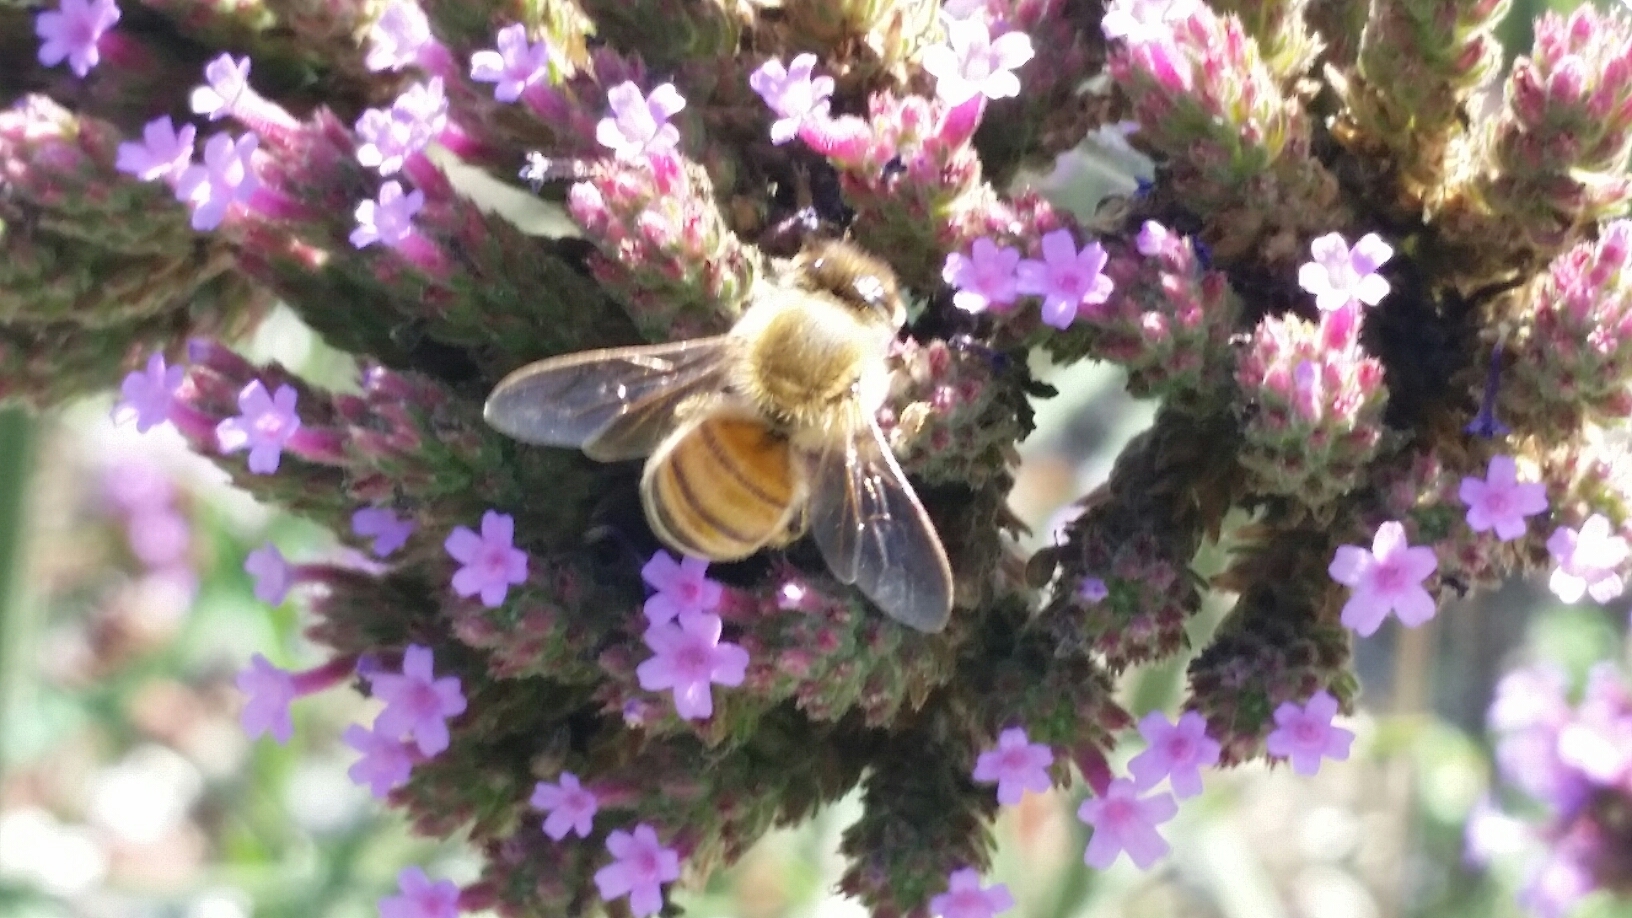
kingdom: Animalia
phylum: Arthropoda
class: Insecta
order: Hymenoptera
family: Apidae
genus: Apis
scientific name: Apis mellifera
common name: Honey bee
